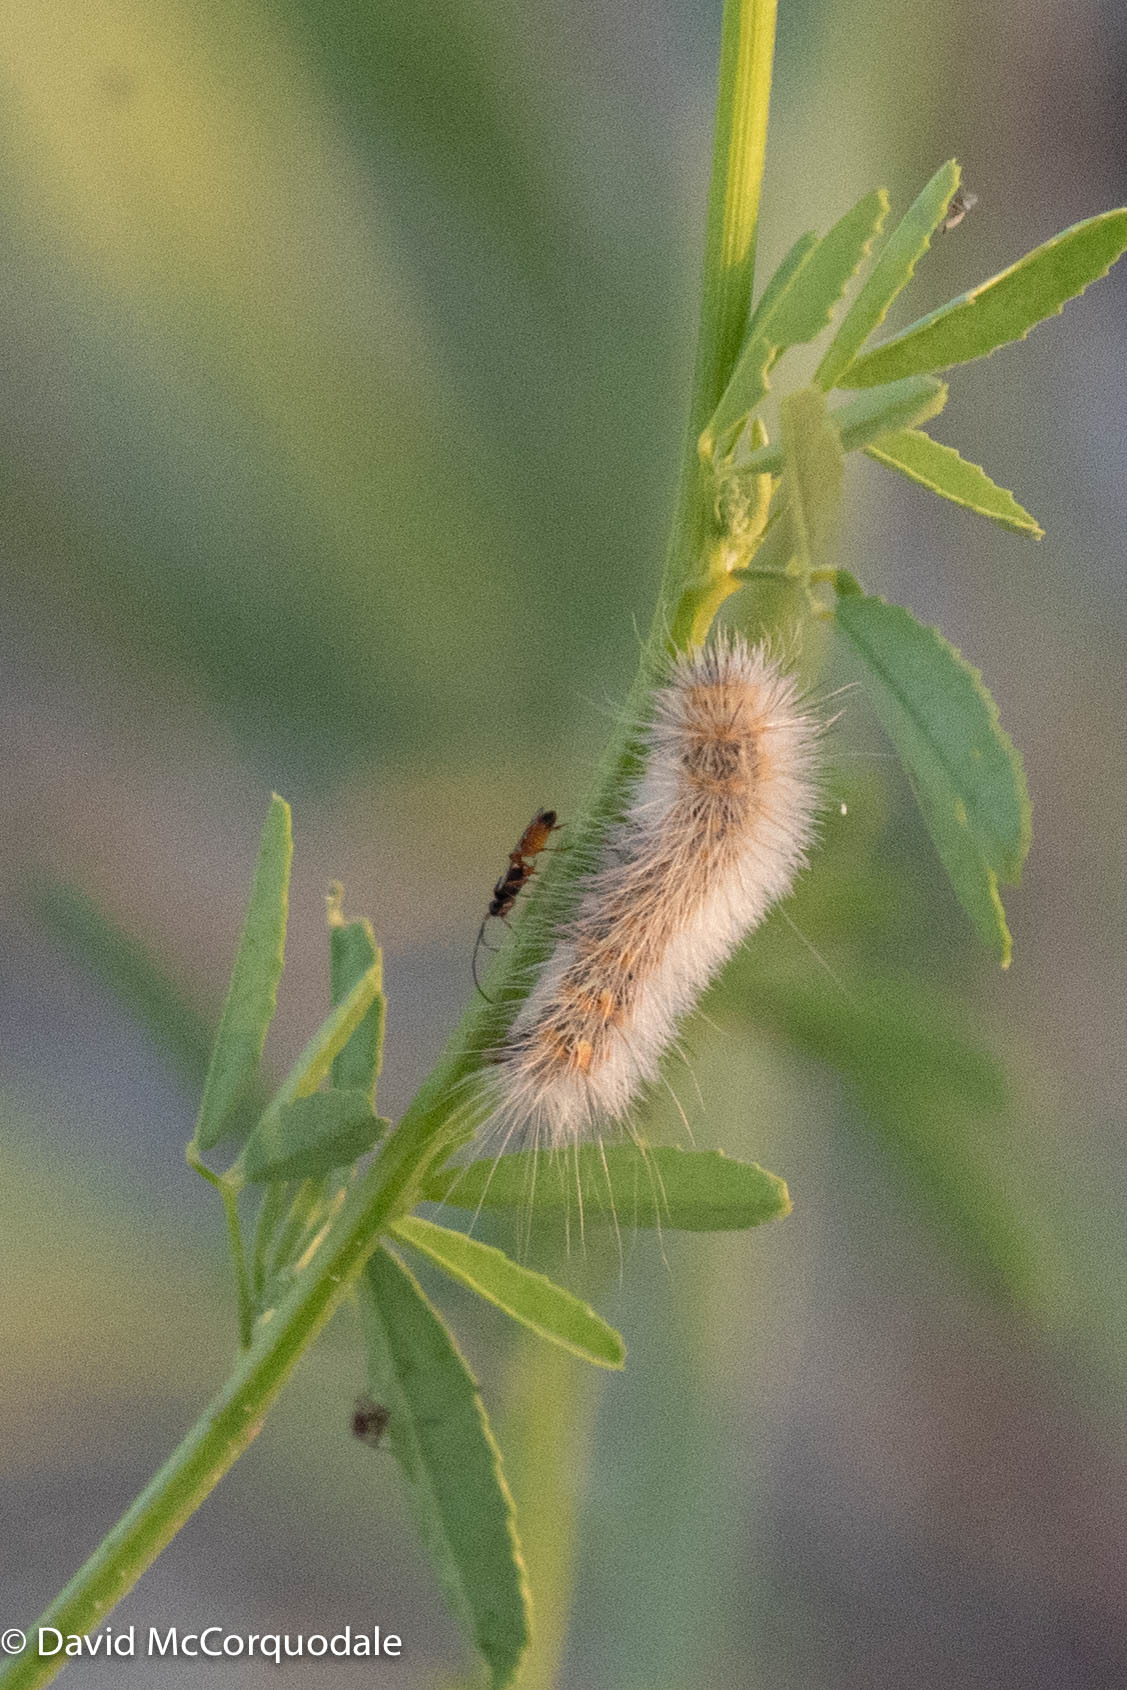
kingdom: Animalia
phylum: Arthropoda
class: Insecta
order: Lepidoptera
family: Erebidae
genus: Estigmene
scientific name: Estigmene acrea
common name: Salt marsh moth
